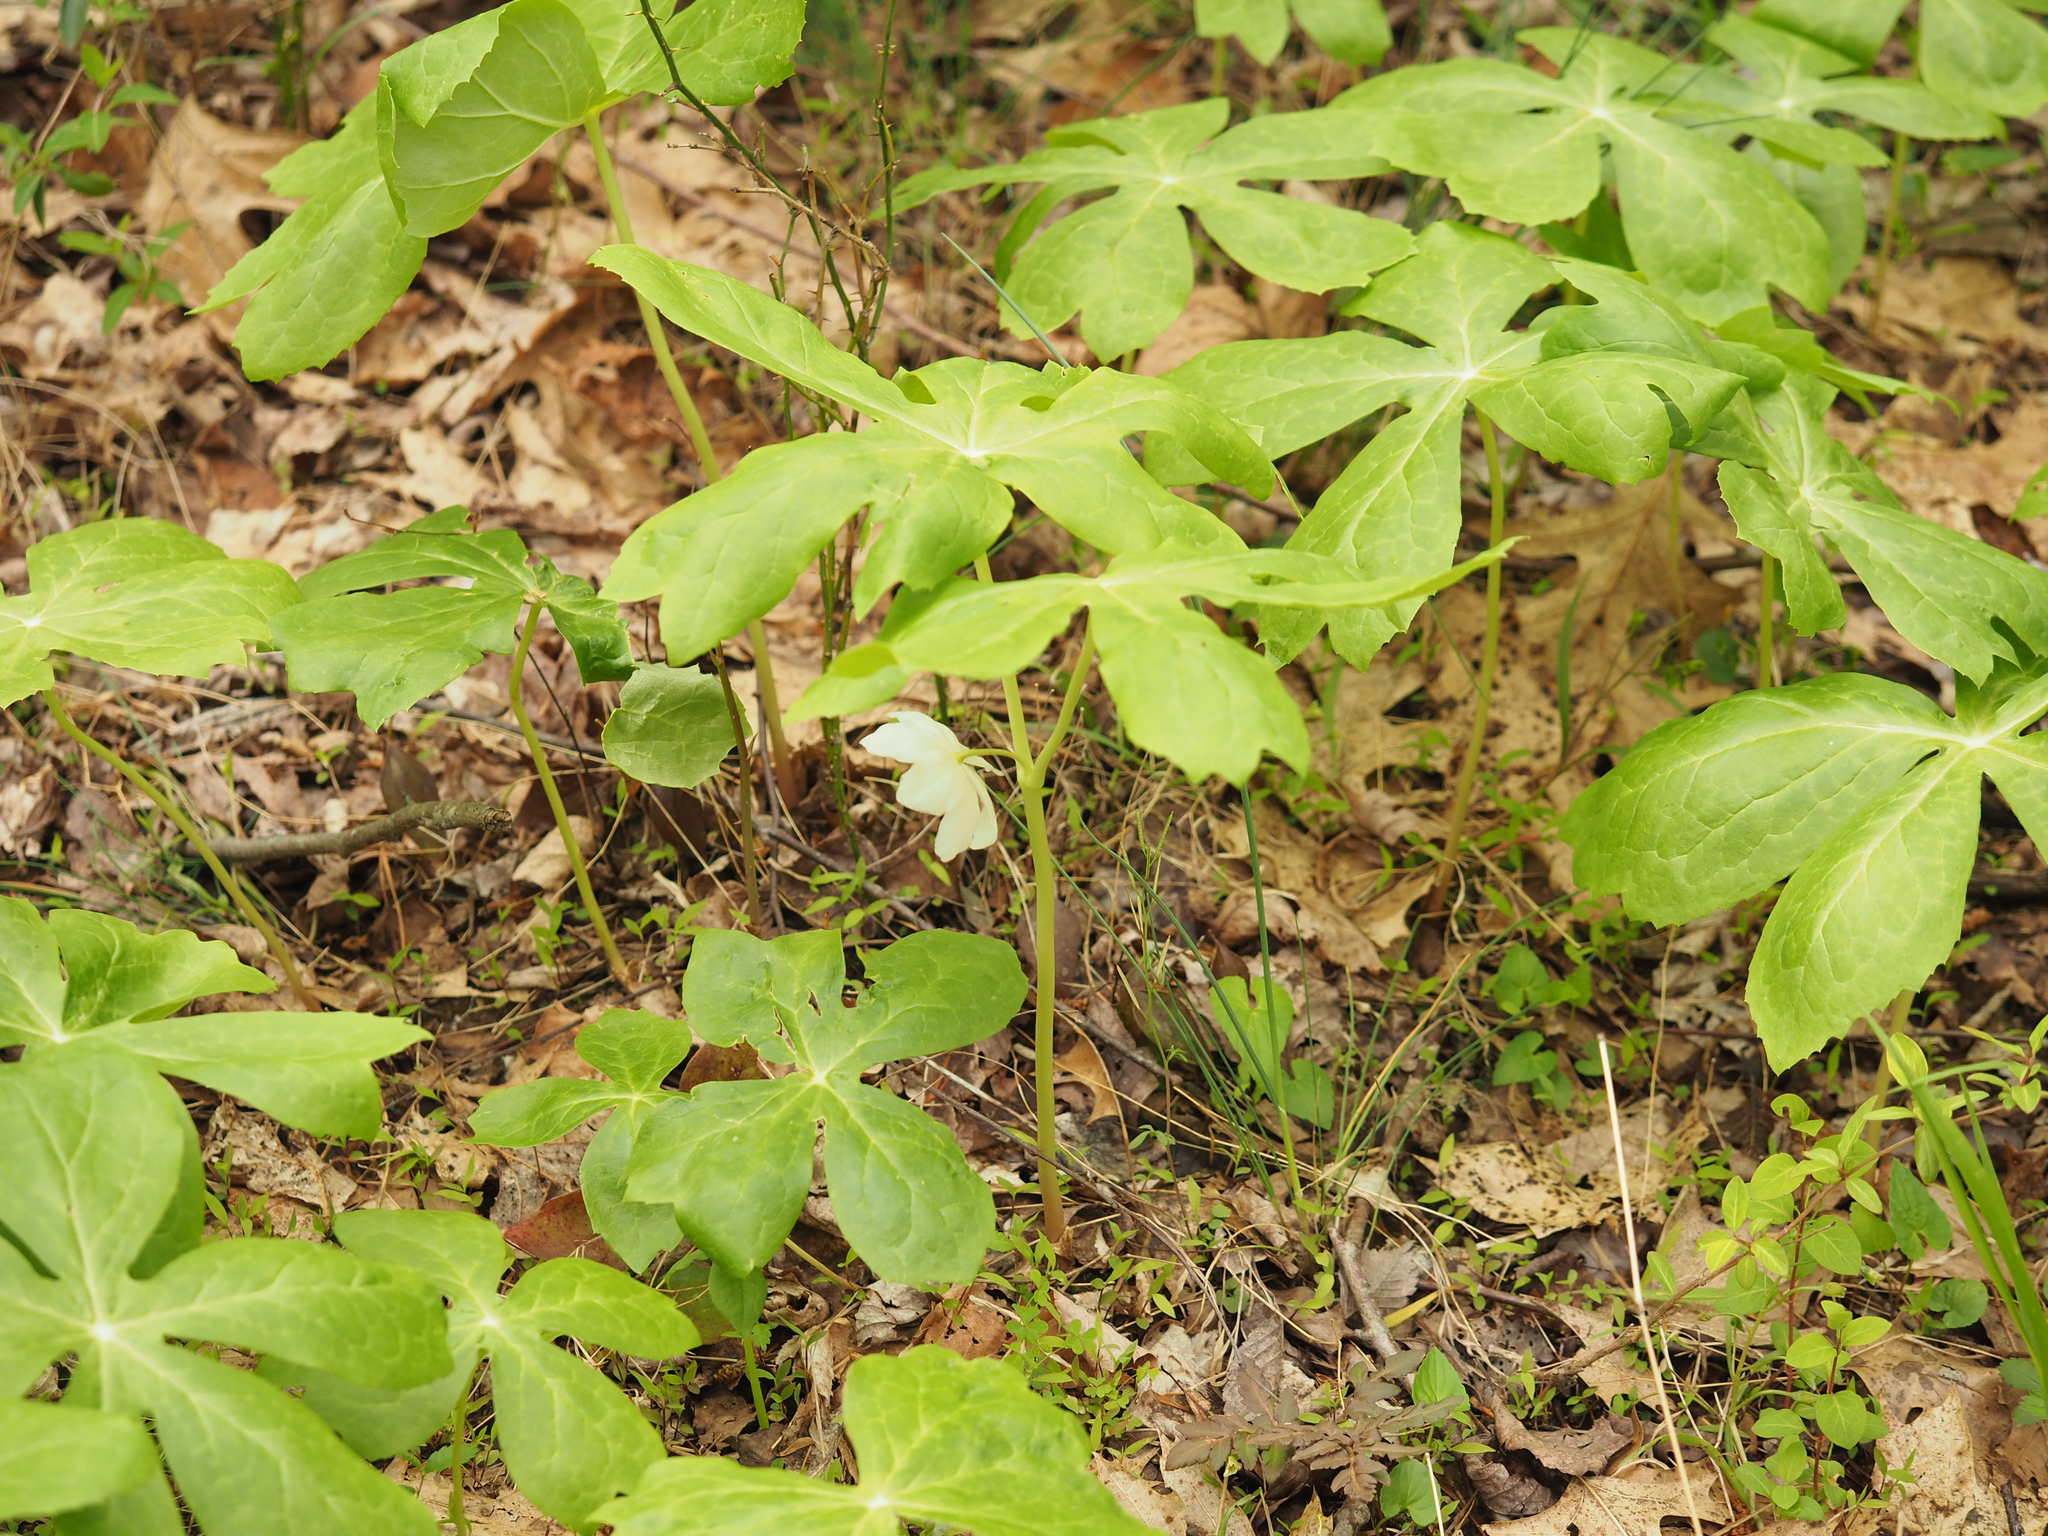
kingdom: Plantae
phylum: Tracheophyta
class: Magnoliopsida
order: Ranunculales
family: Berberidaceae
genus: Podophyllum
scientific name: Podophyllum peltatum
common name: Wild mandrake
